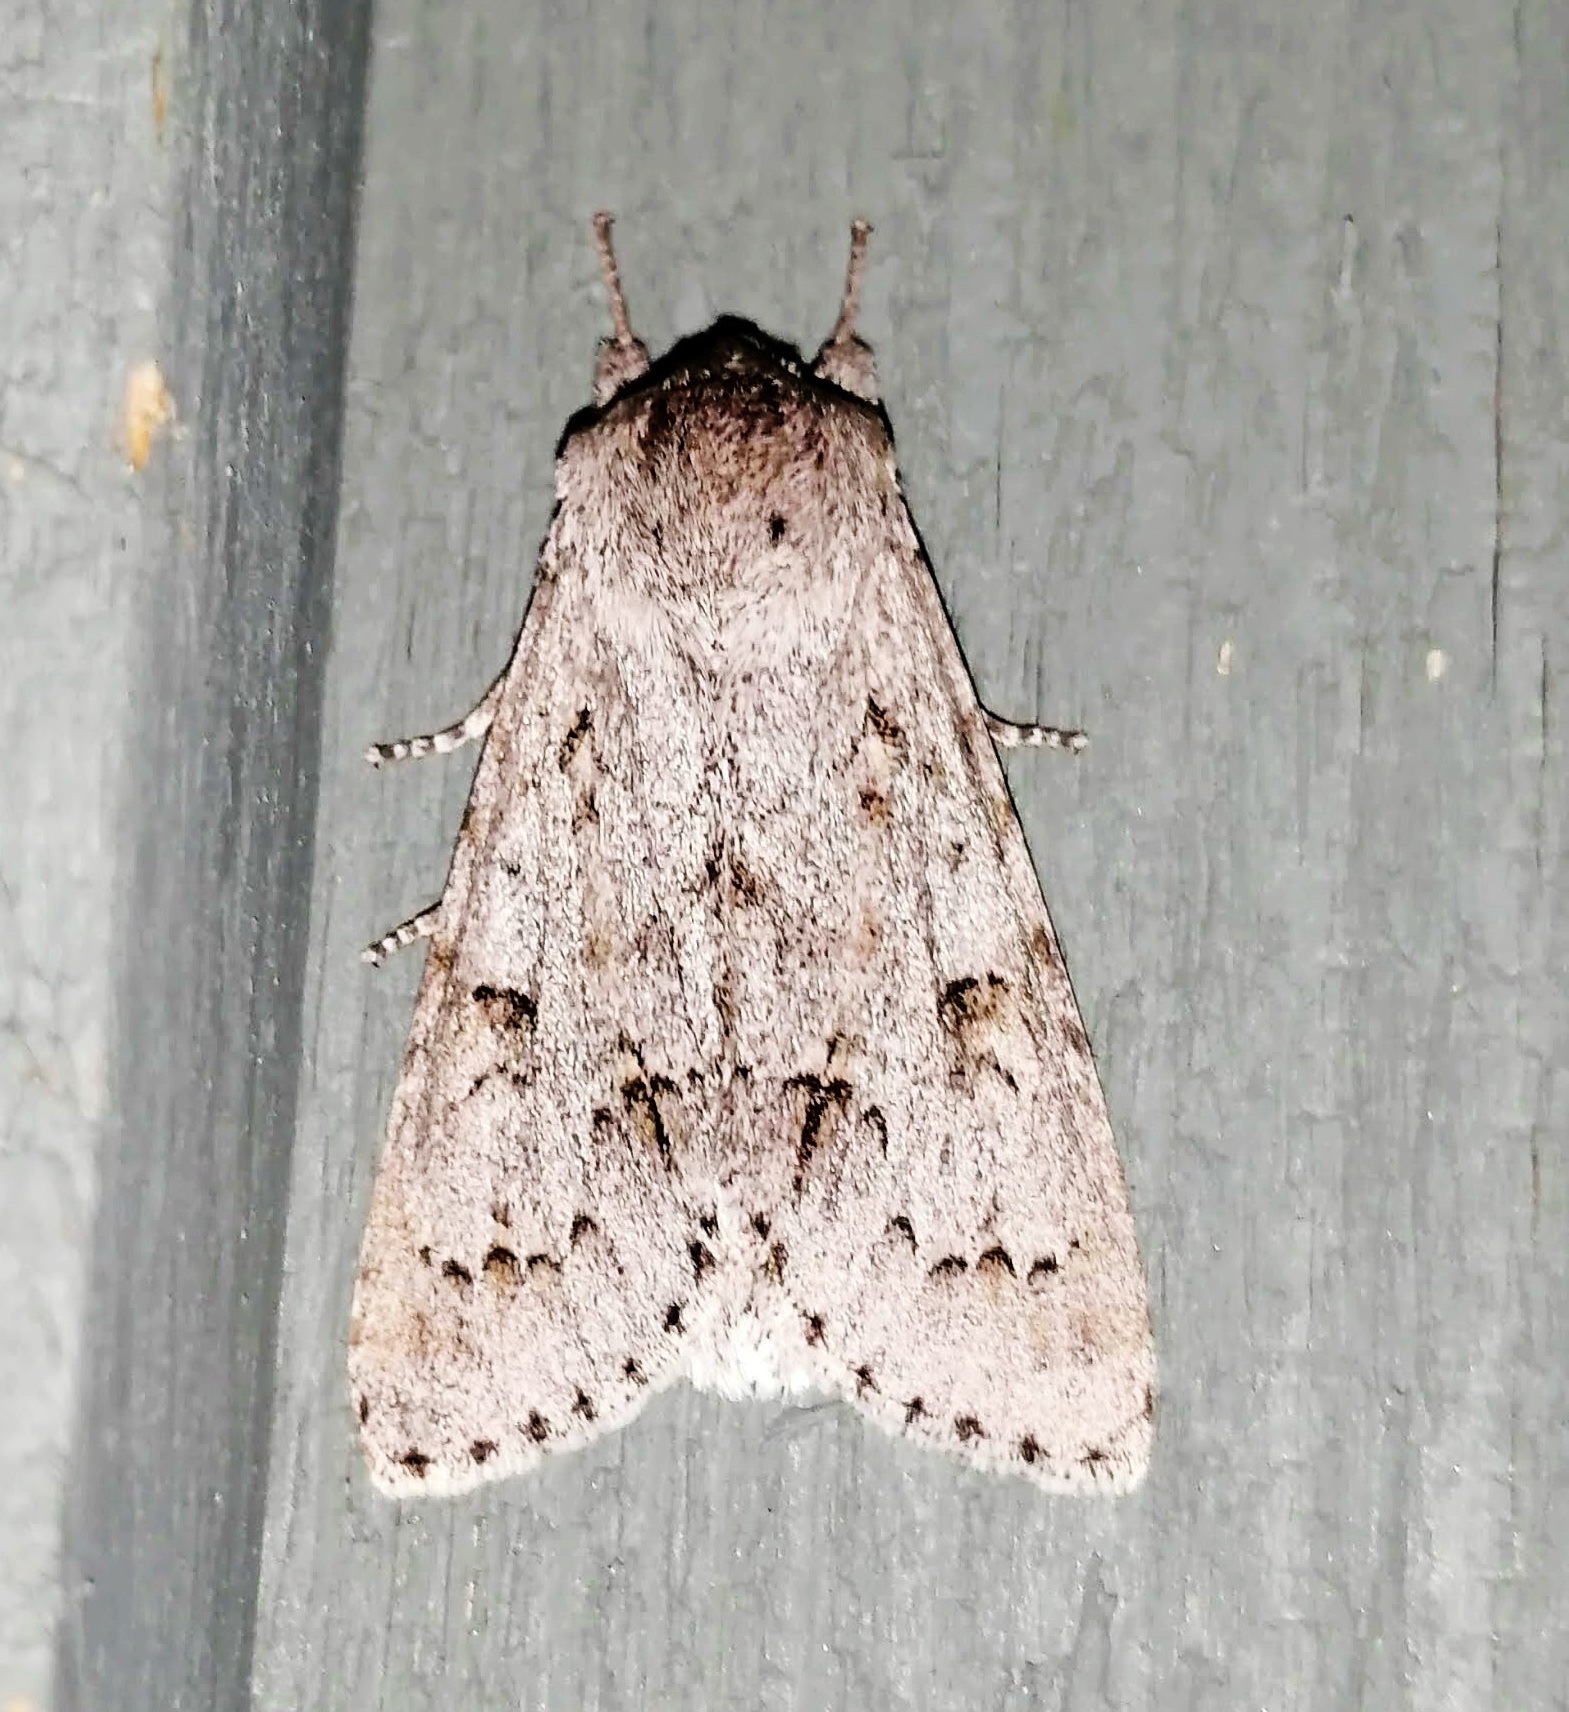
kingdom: Animalia
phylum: Arthropoda
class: Insecta
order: Lepidoptera
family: Noctuidae
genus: Acronicta
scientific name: Acronicta insita
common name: Large gray dagger
